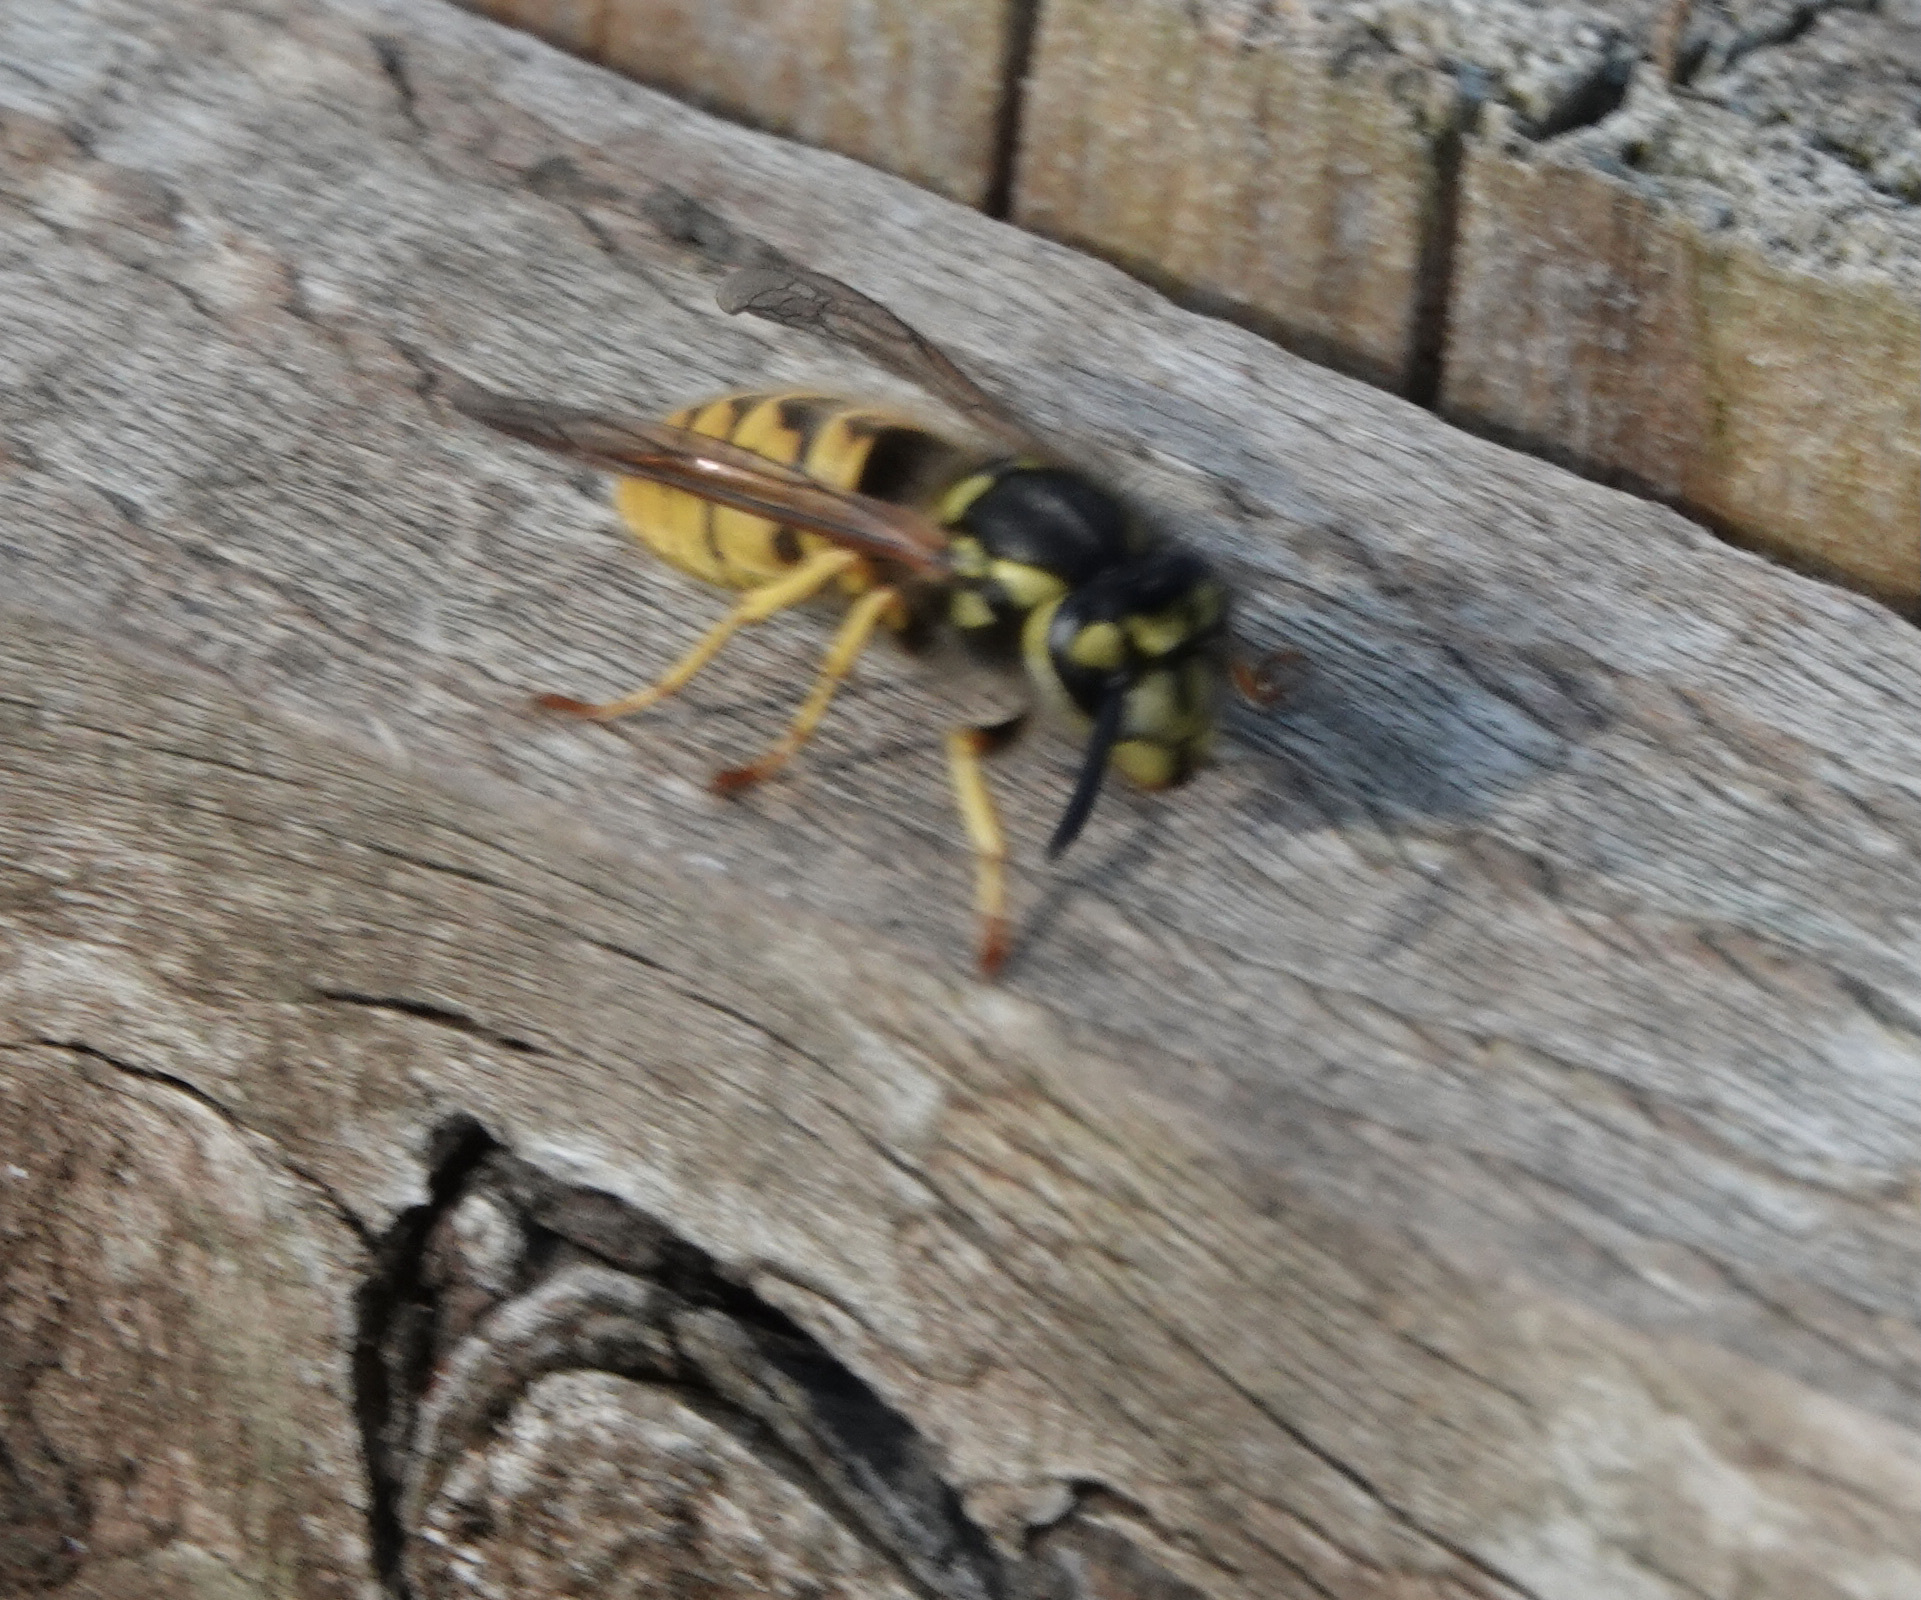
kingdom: Animalia
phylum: Arthropoda
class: Insecta
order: Hymenoptera
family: Vespidae
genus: Vespula
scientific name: Vespula germanica
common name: German wasp
